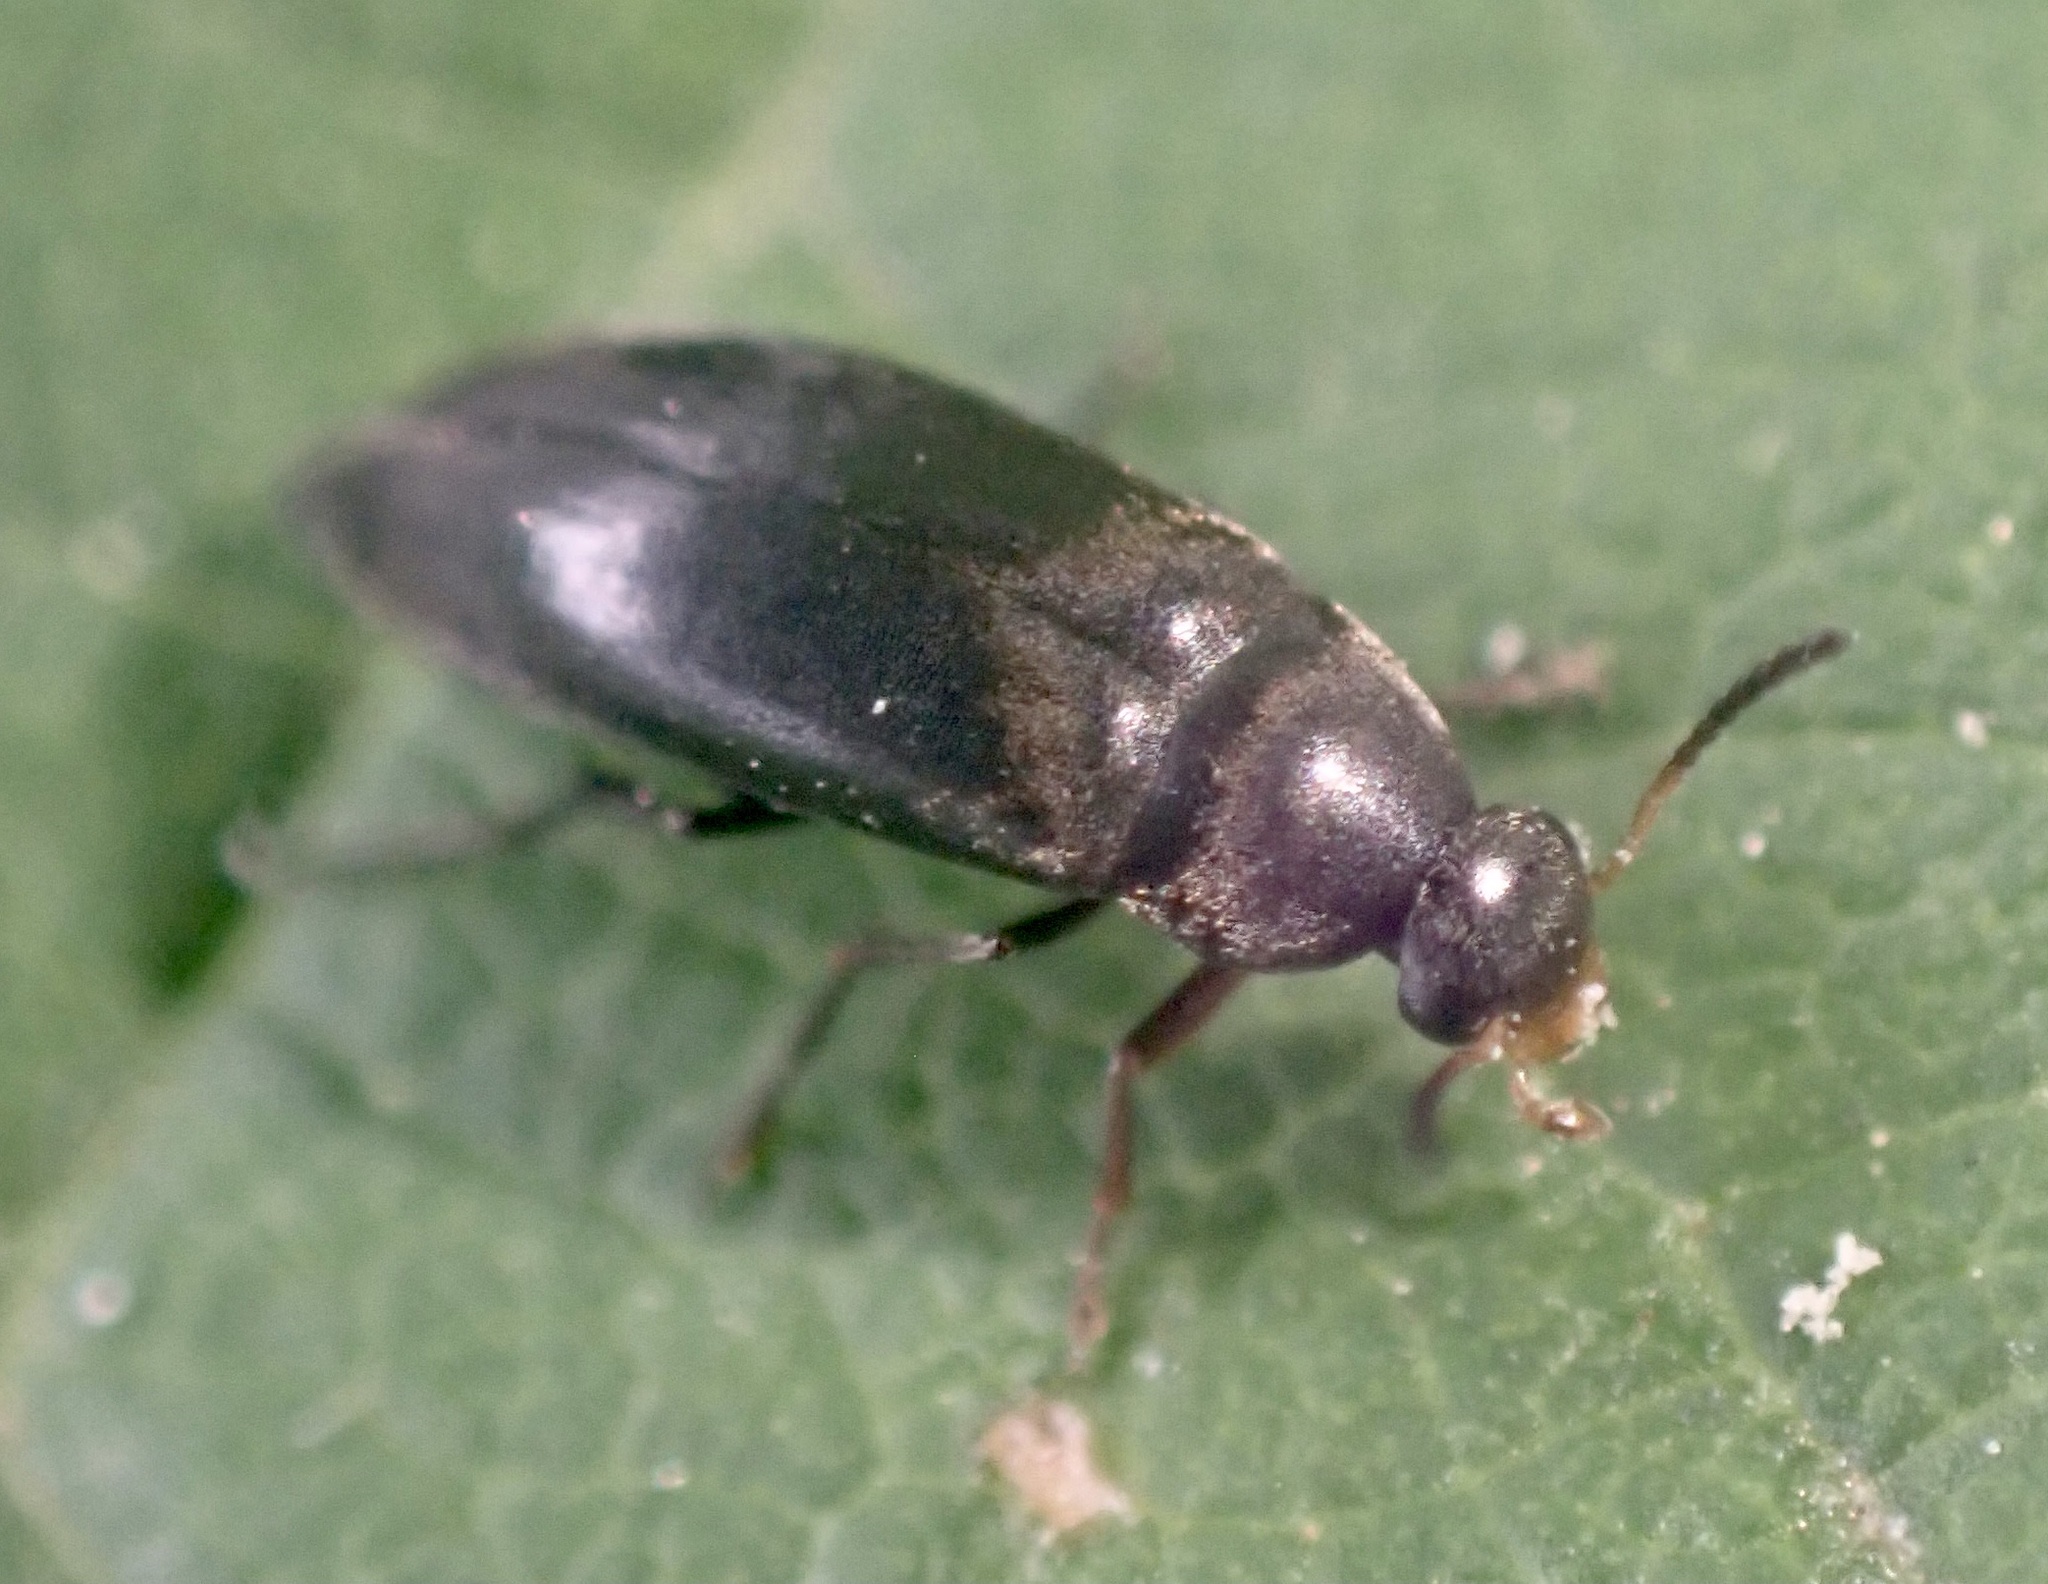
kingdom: Animalia
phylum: Arthropoda
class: Insecta
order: Coleoptera
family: Scraptiidae
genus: Anaspis
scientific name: Anaspis rufilabris
